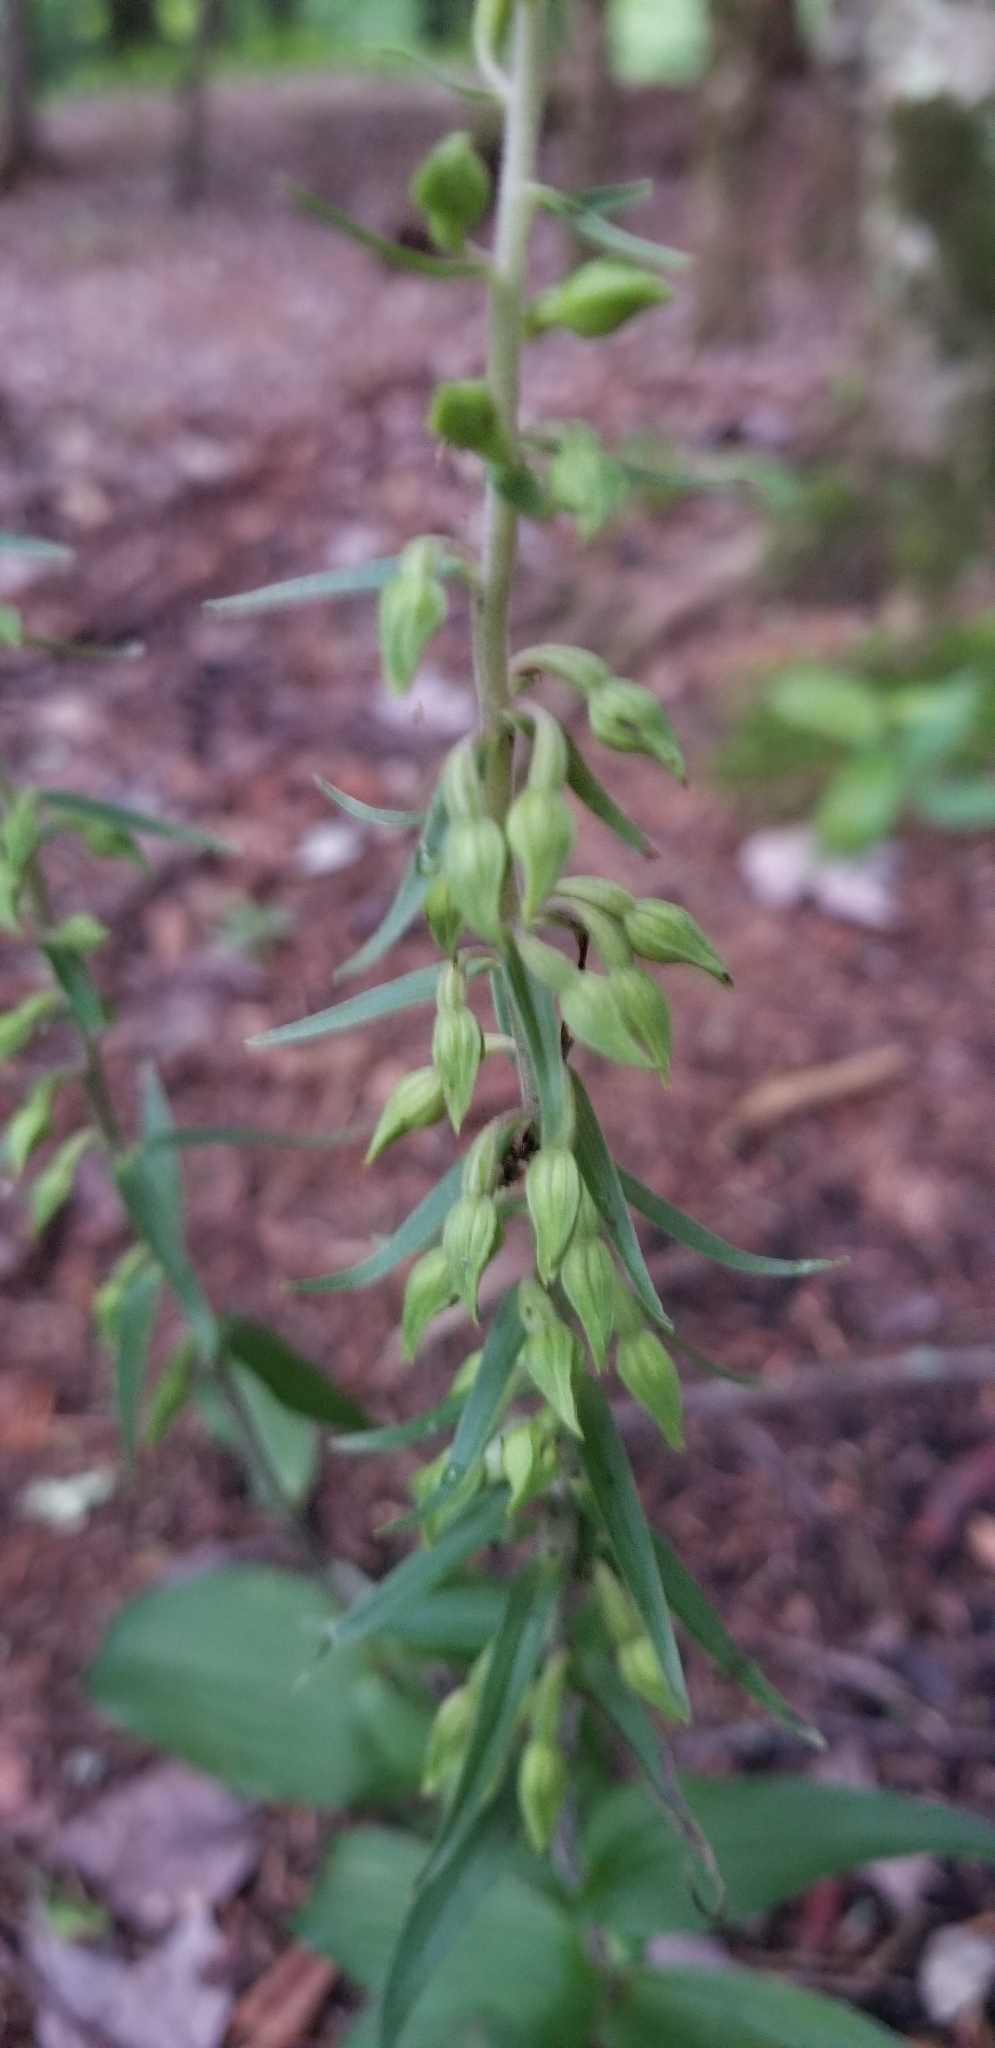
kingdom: Plantae
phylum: Tracheophyta
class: Liliopsida
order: Asparagales
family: Orchidaceae
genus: Epipactis
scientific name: Epipactis helleborine
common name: Broad-leaved helleborine
